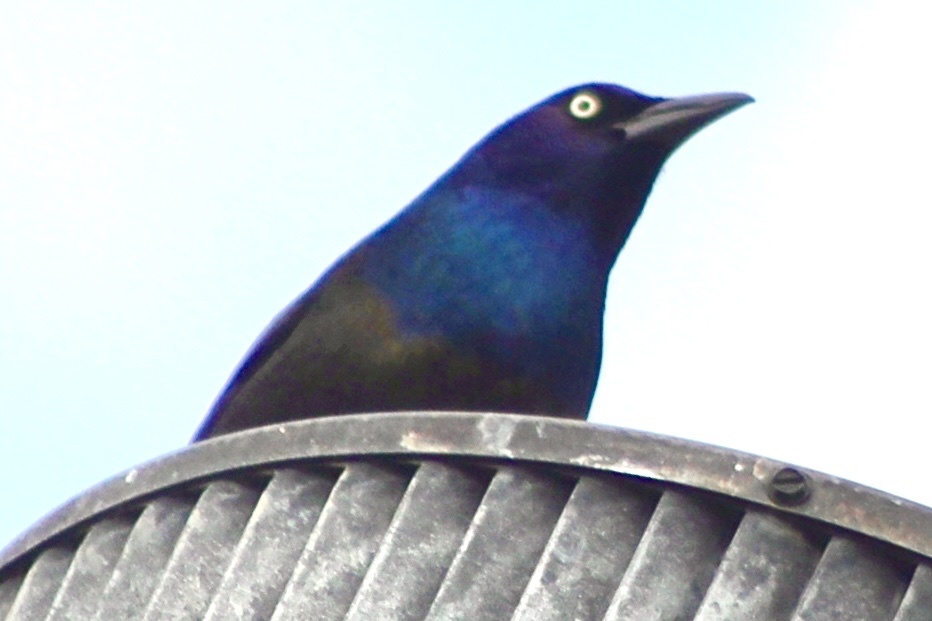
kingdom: Animalia
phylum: Chordata
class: Aves
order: Passeriformes
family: Icteridae
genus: Quiscalus
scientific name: Quiscalus quiscula
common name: Common grackle
